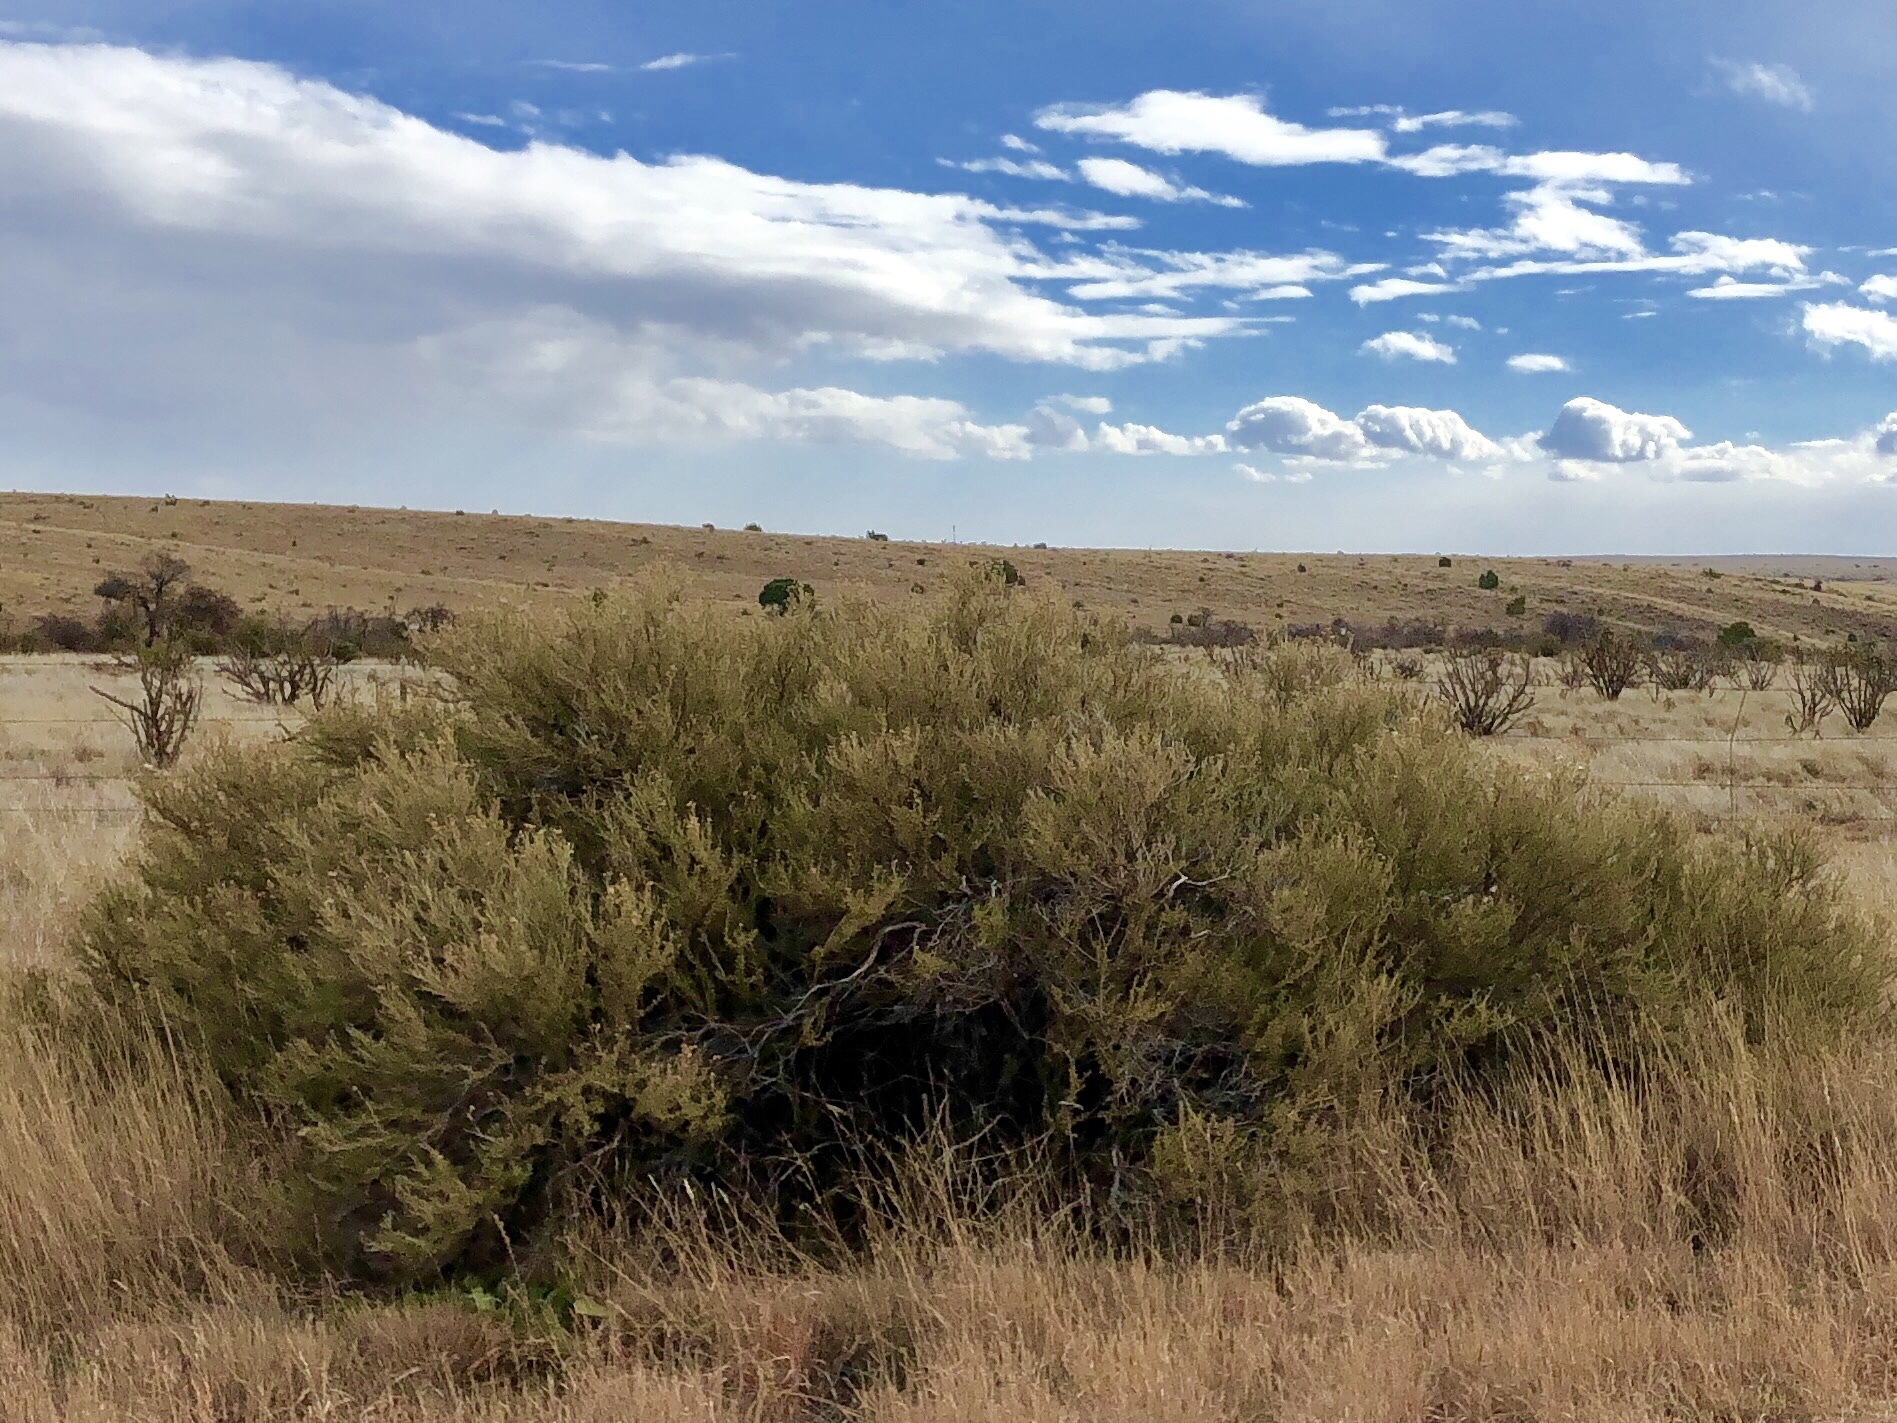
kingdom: Plantae
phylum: Tracheophyta
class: Magnoliopsida
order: Rosales
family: Rosaceae
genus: Fallugia
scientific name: Fallugia paradoxa
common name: Apache-plume
